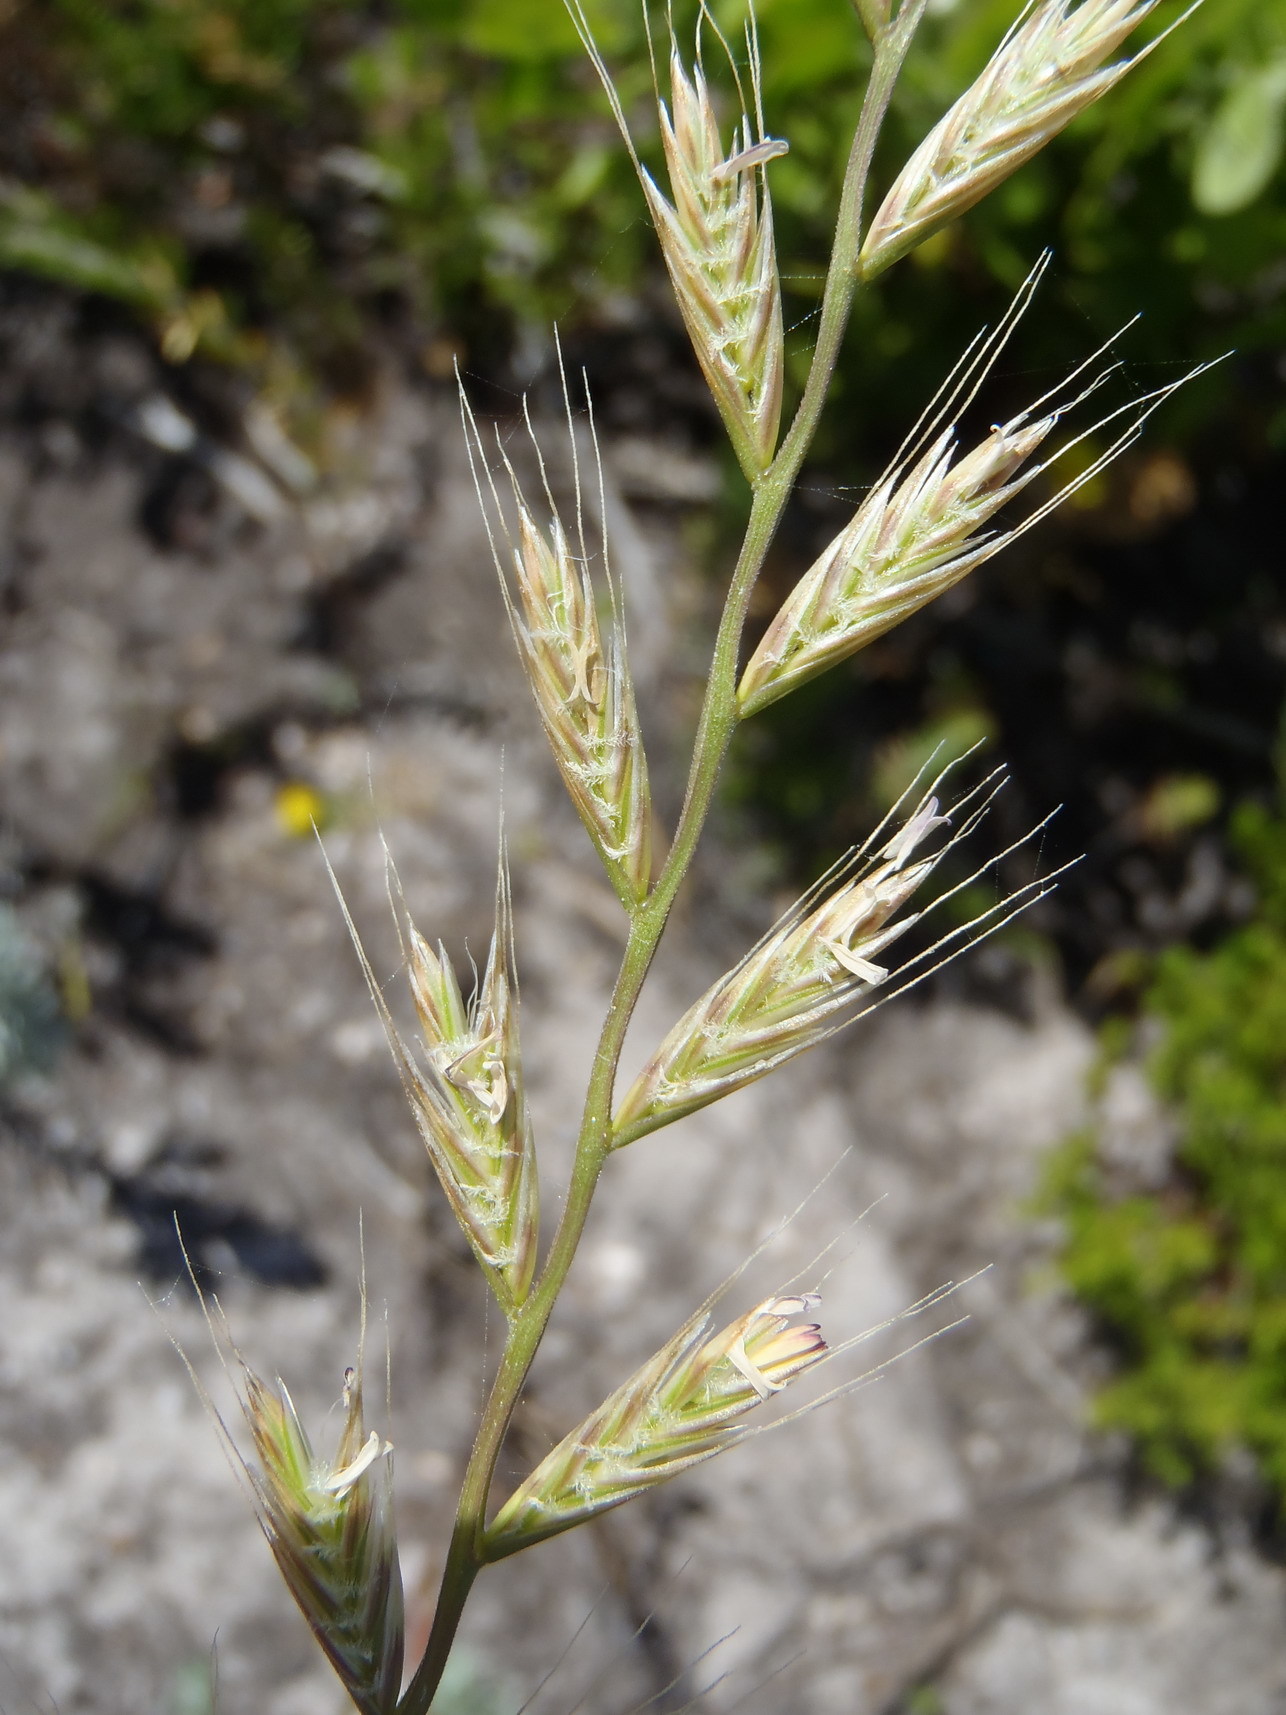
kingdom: Plantae
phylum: Tracheophyta
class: Liliopsida
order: Poales
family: Poaceae
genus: Lolium
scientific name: Lolium multiflorum
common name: Annual ryegrass
